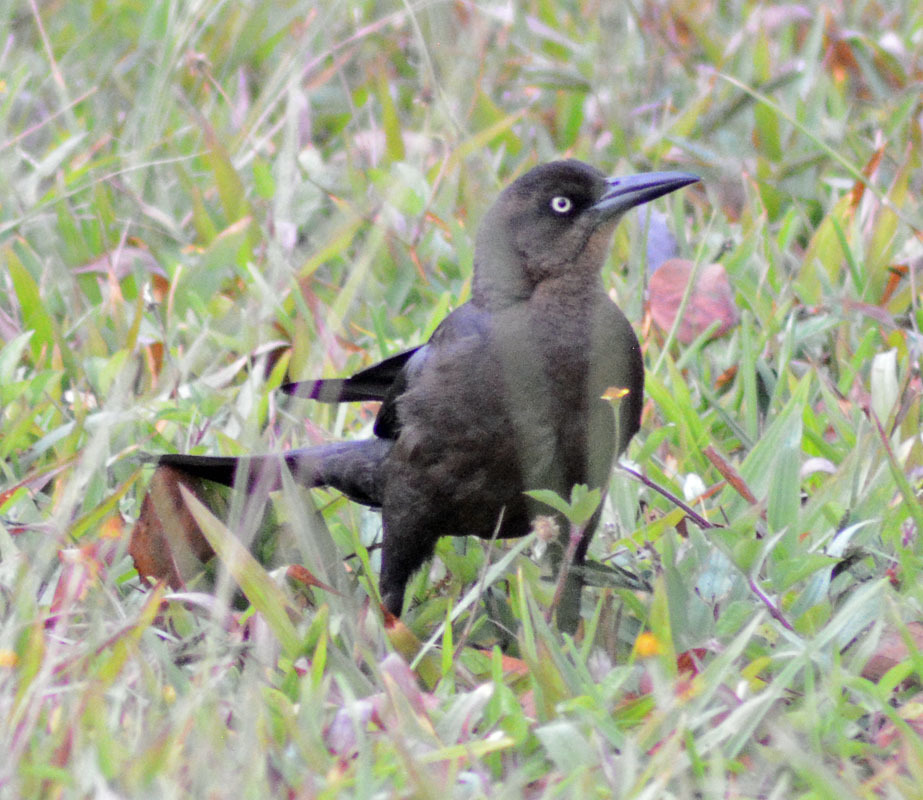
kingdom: Animalia
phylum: Chordata
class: Aves
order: Passeriformes
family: Icteridae
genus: Quiscalus
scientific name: Quiscalus mexicanus
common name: Great-tailed grackle
